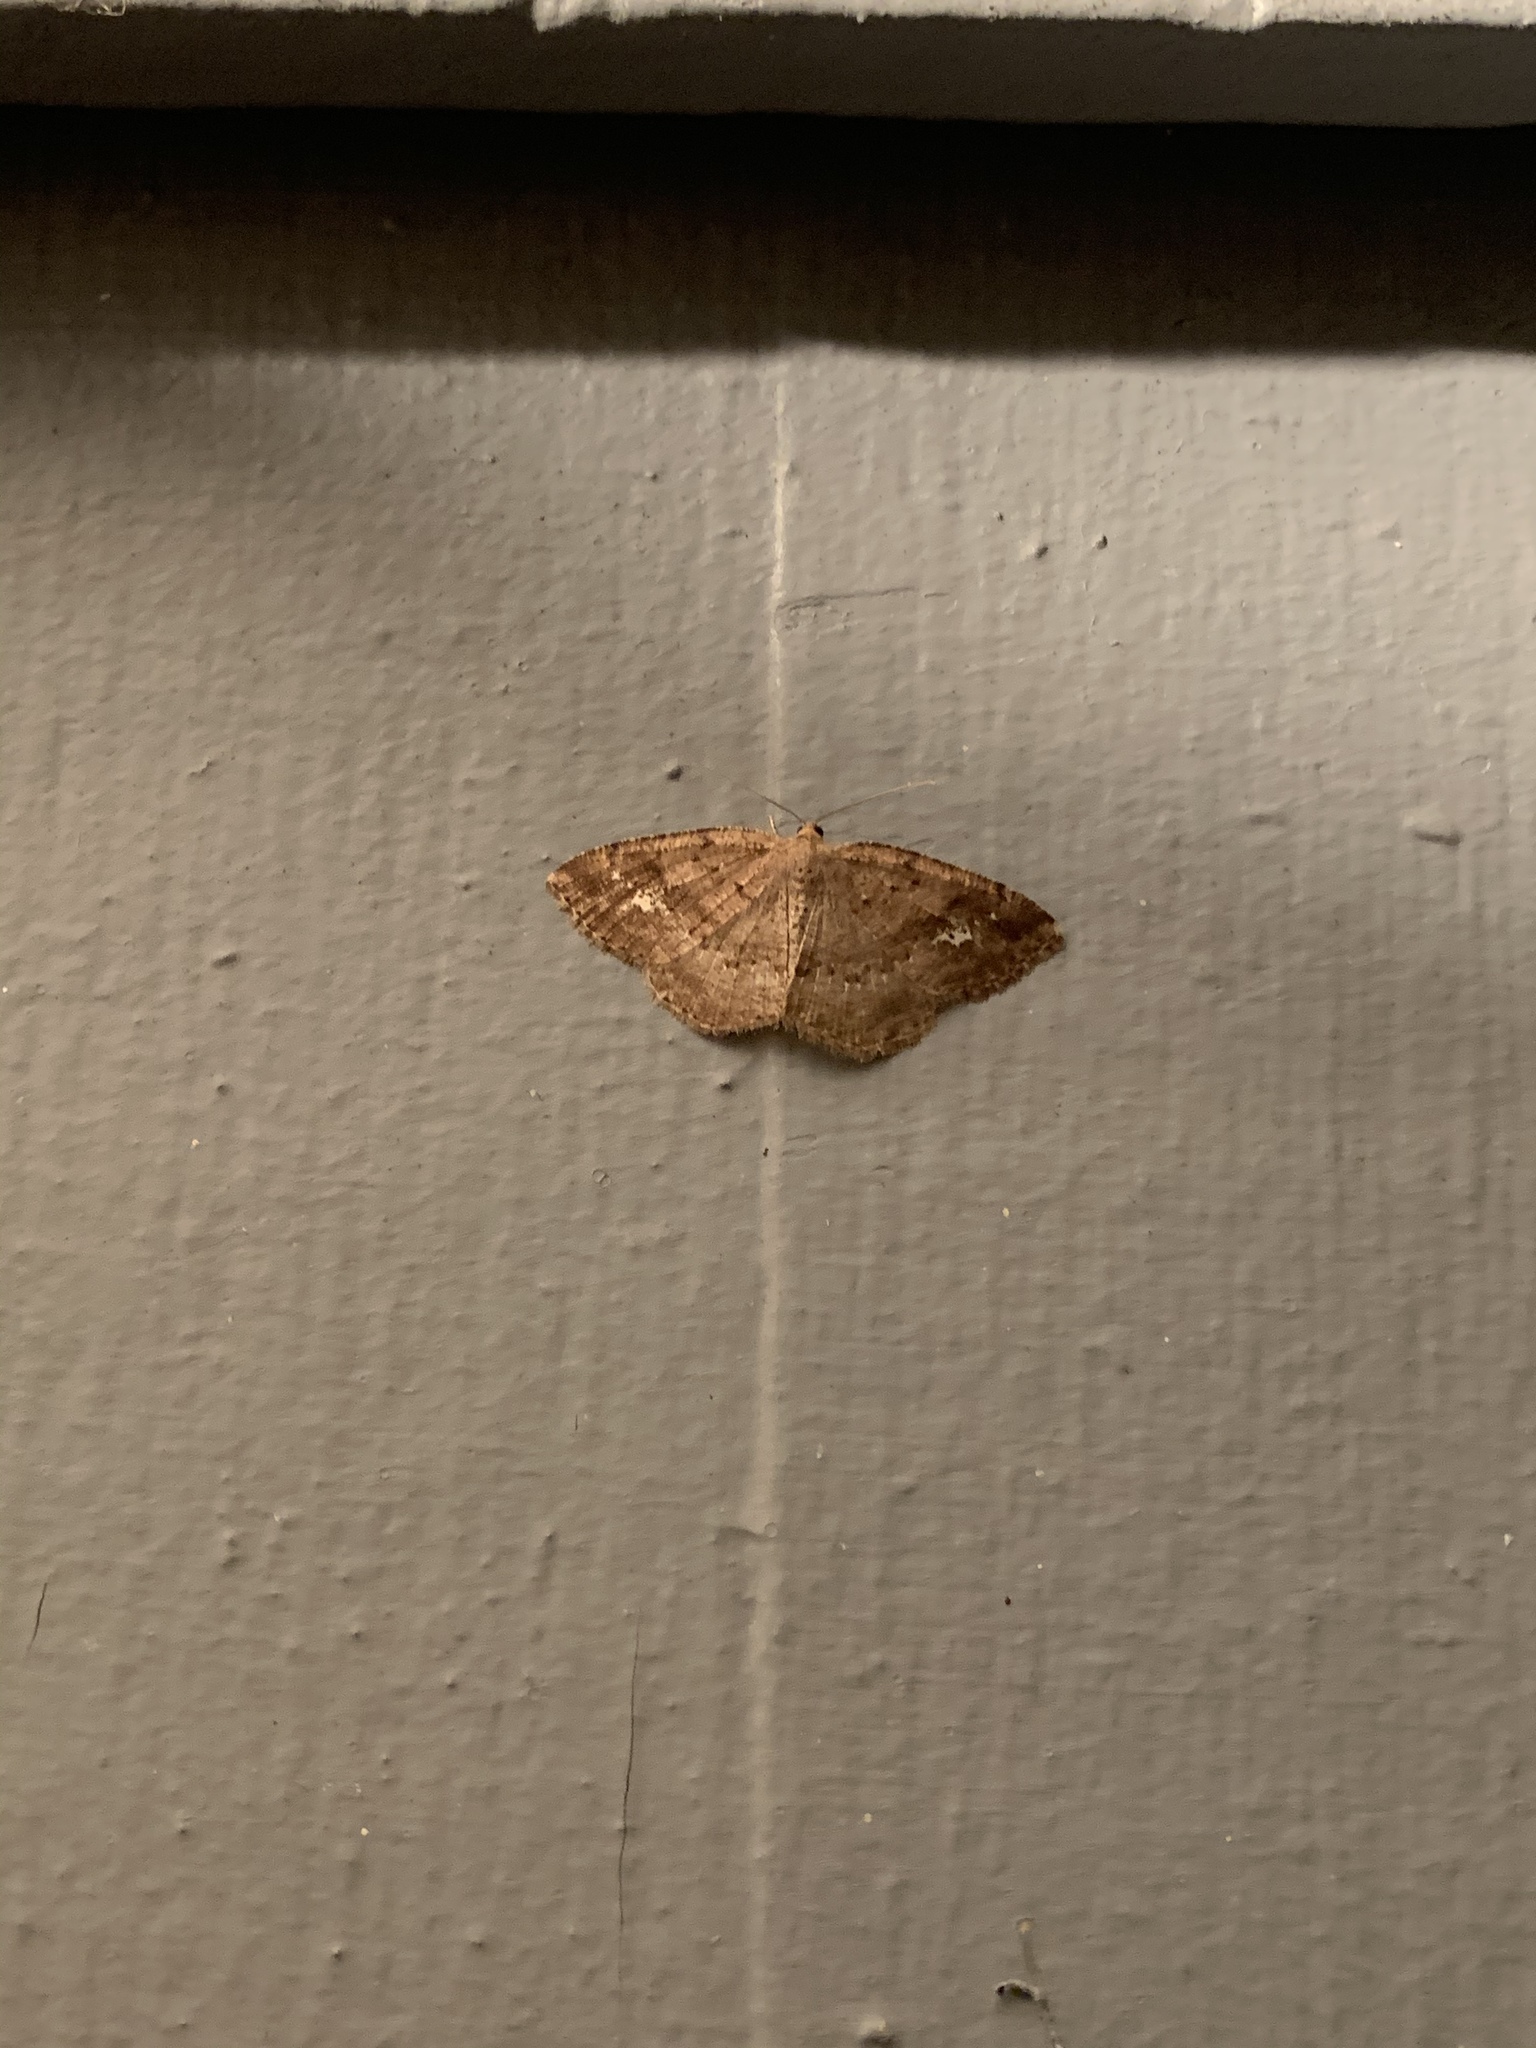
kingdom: Animalia
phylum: Arthropoda
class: Insecta
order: Lepidoptera
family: Geometridae
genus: Homochlodes
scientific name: Homochlodes fritillaria
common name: Pale homochlodes
